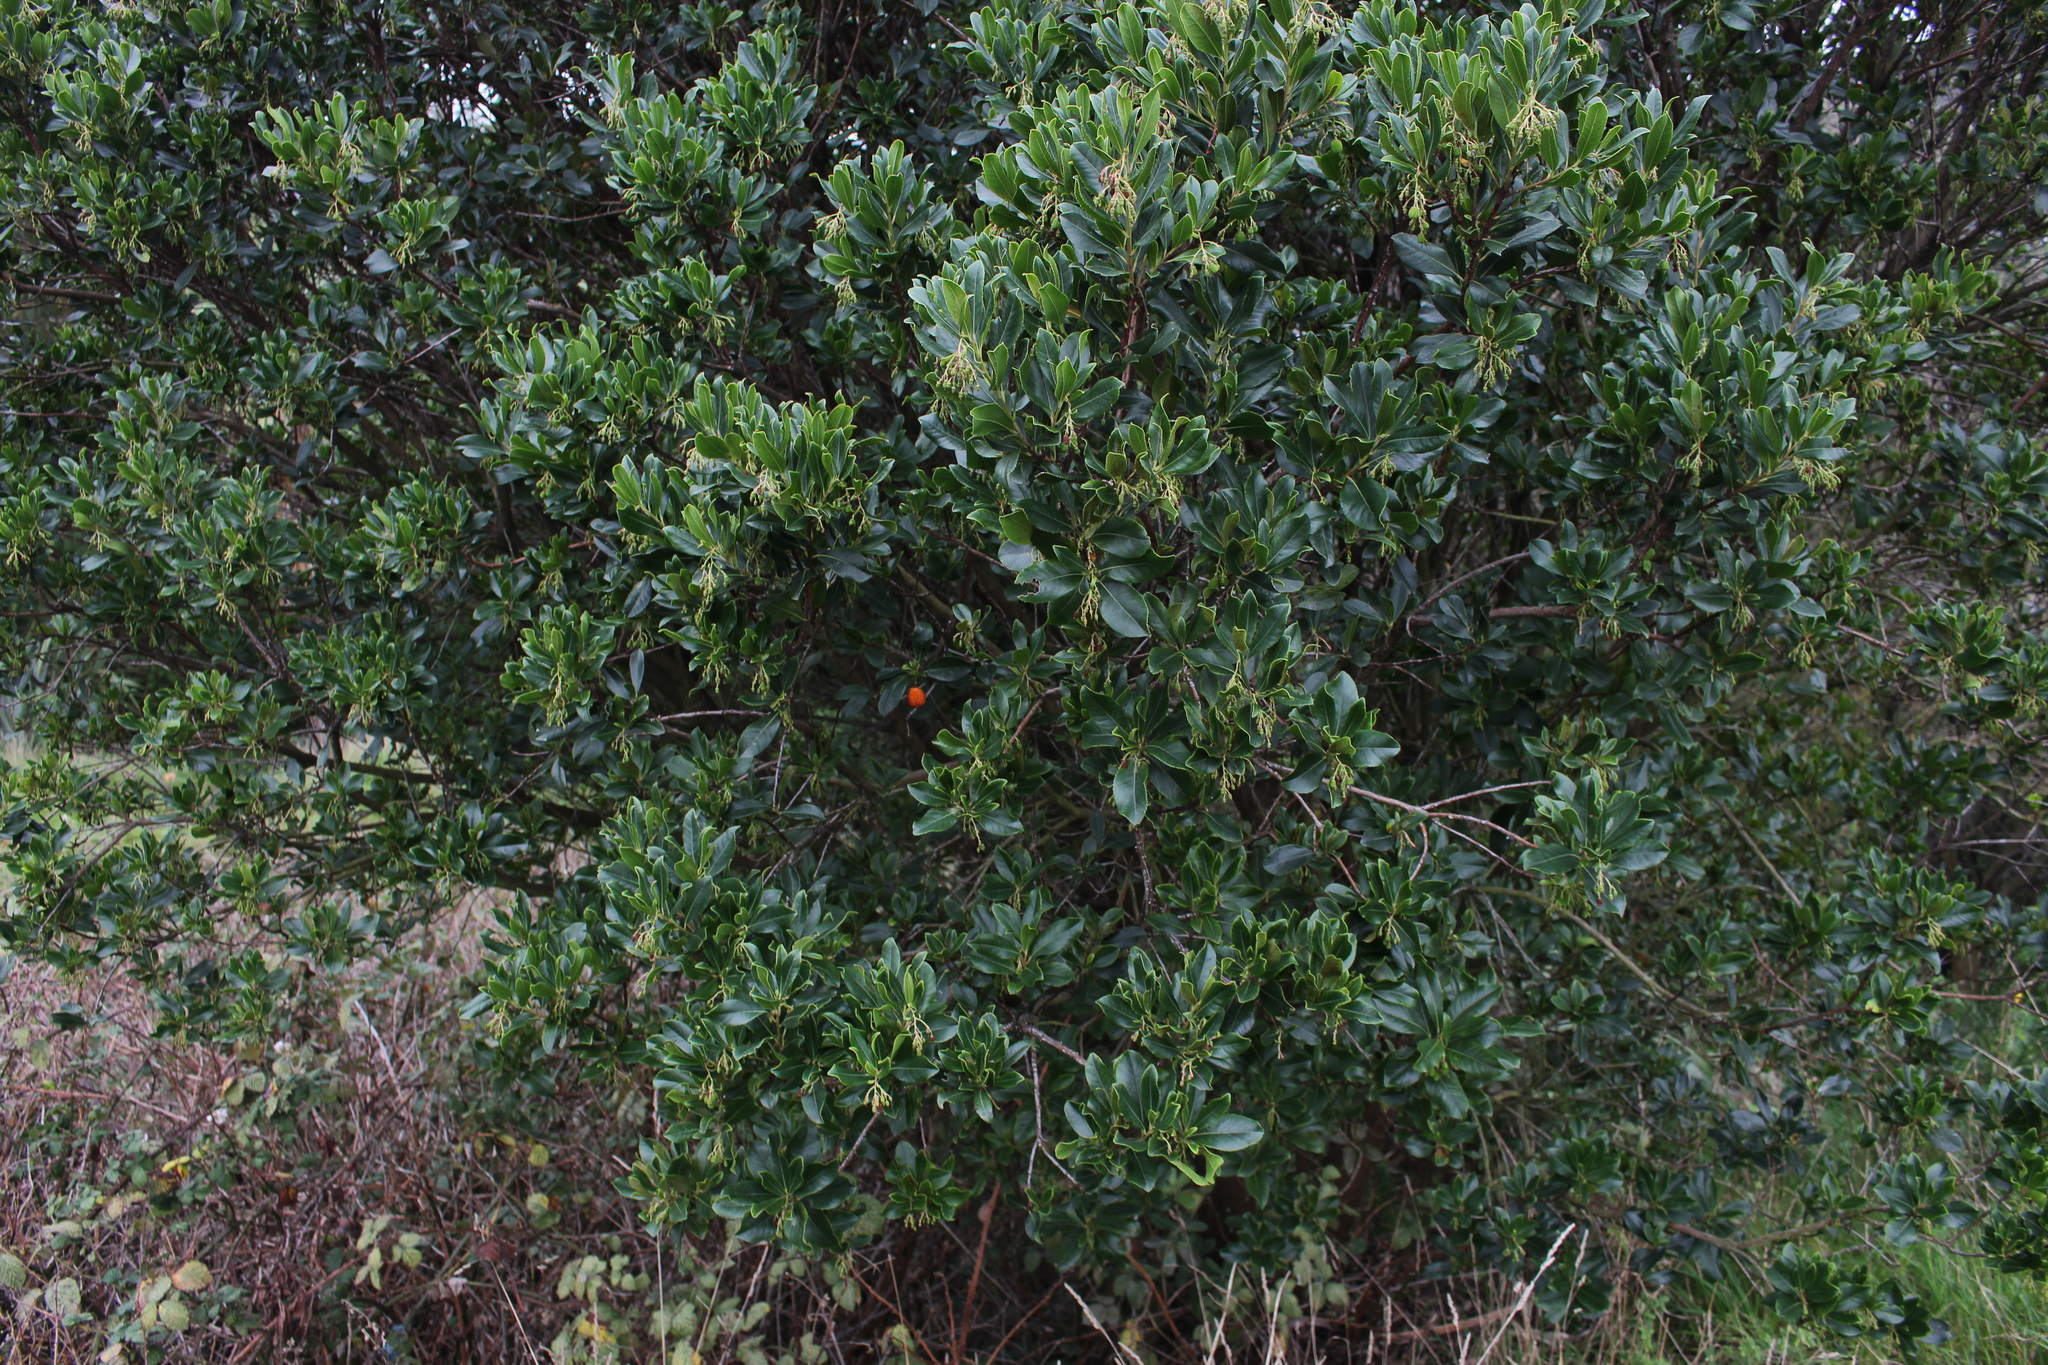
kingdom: Plantae
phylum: Tracheophyta
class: Magnoliopsida
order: Ericales
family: Ericaceae
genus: Arbutus
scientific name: Arbutus unedo
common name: Strawberry-tree
